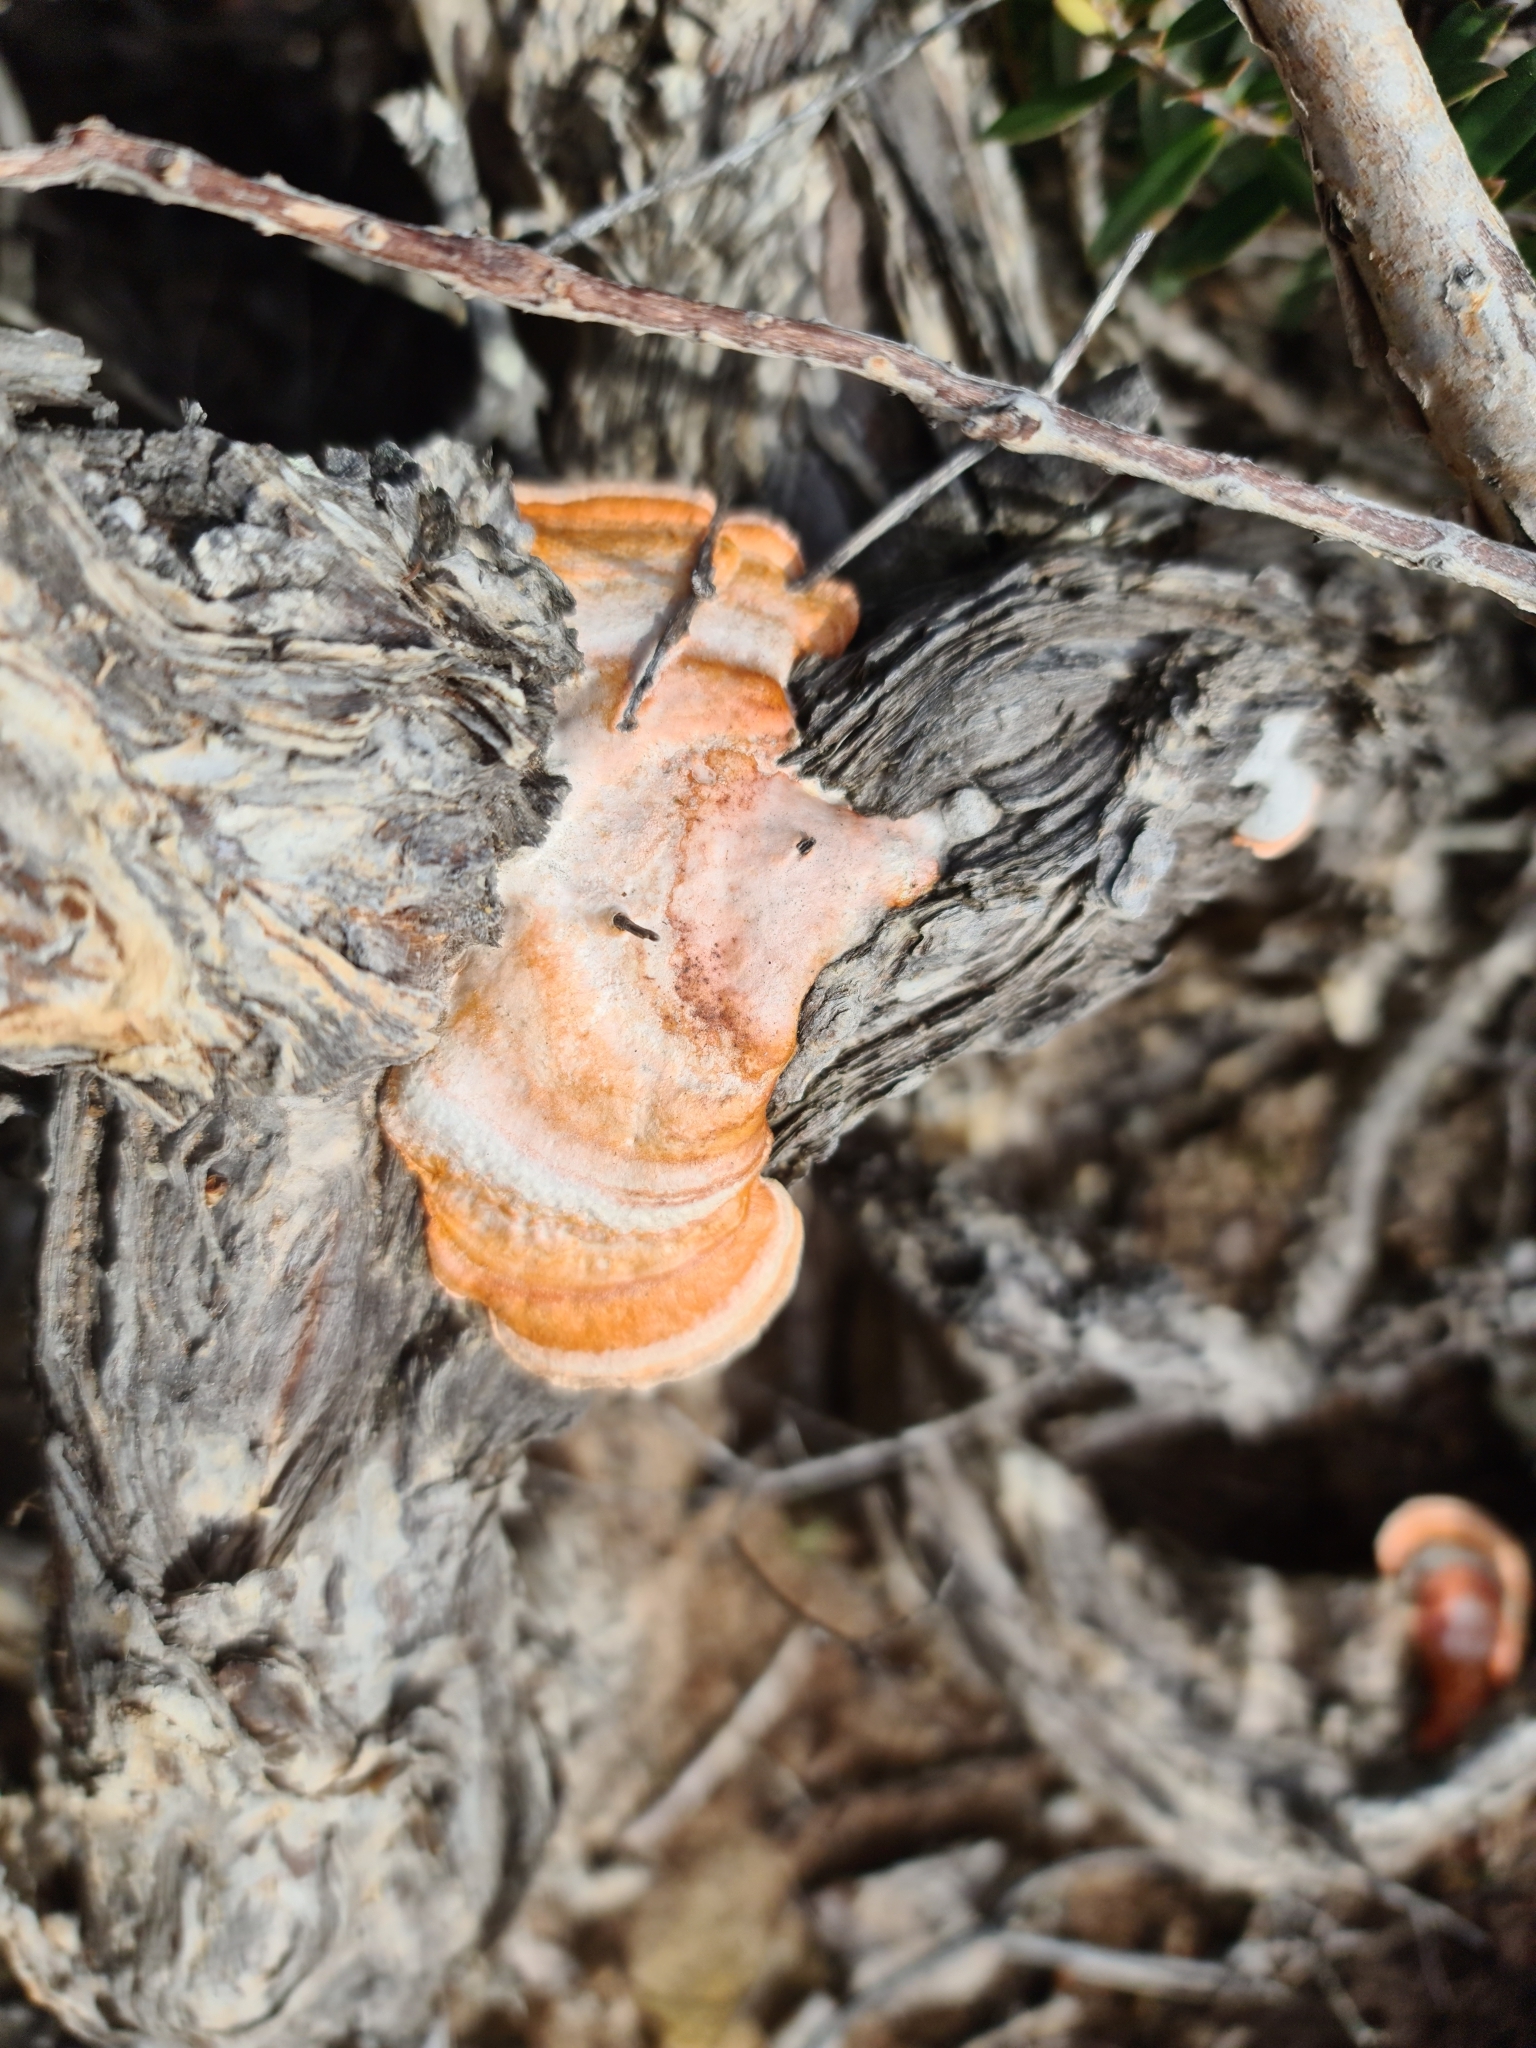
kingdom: Fungi
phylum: Basidiomycota
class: Agaricomycetes
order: Polyporales
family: Polyporaceae
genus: Trametes
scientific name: Trametes coccinea
